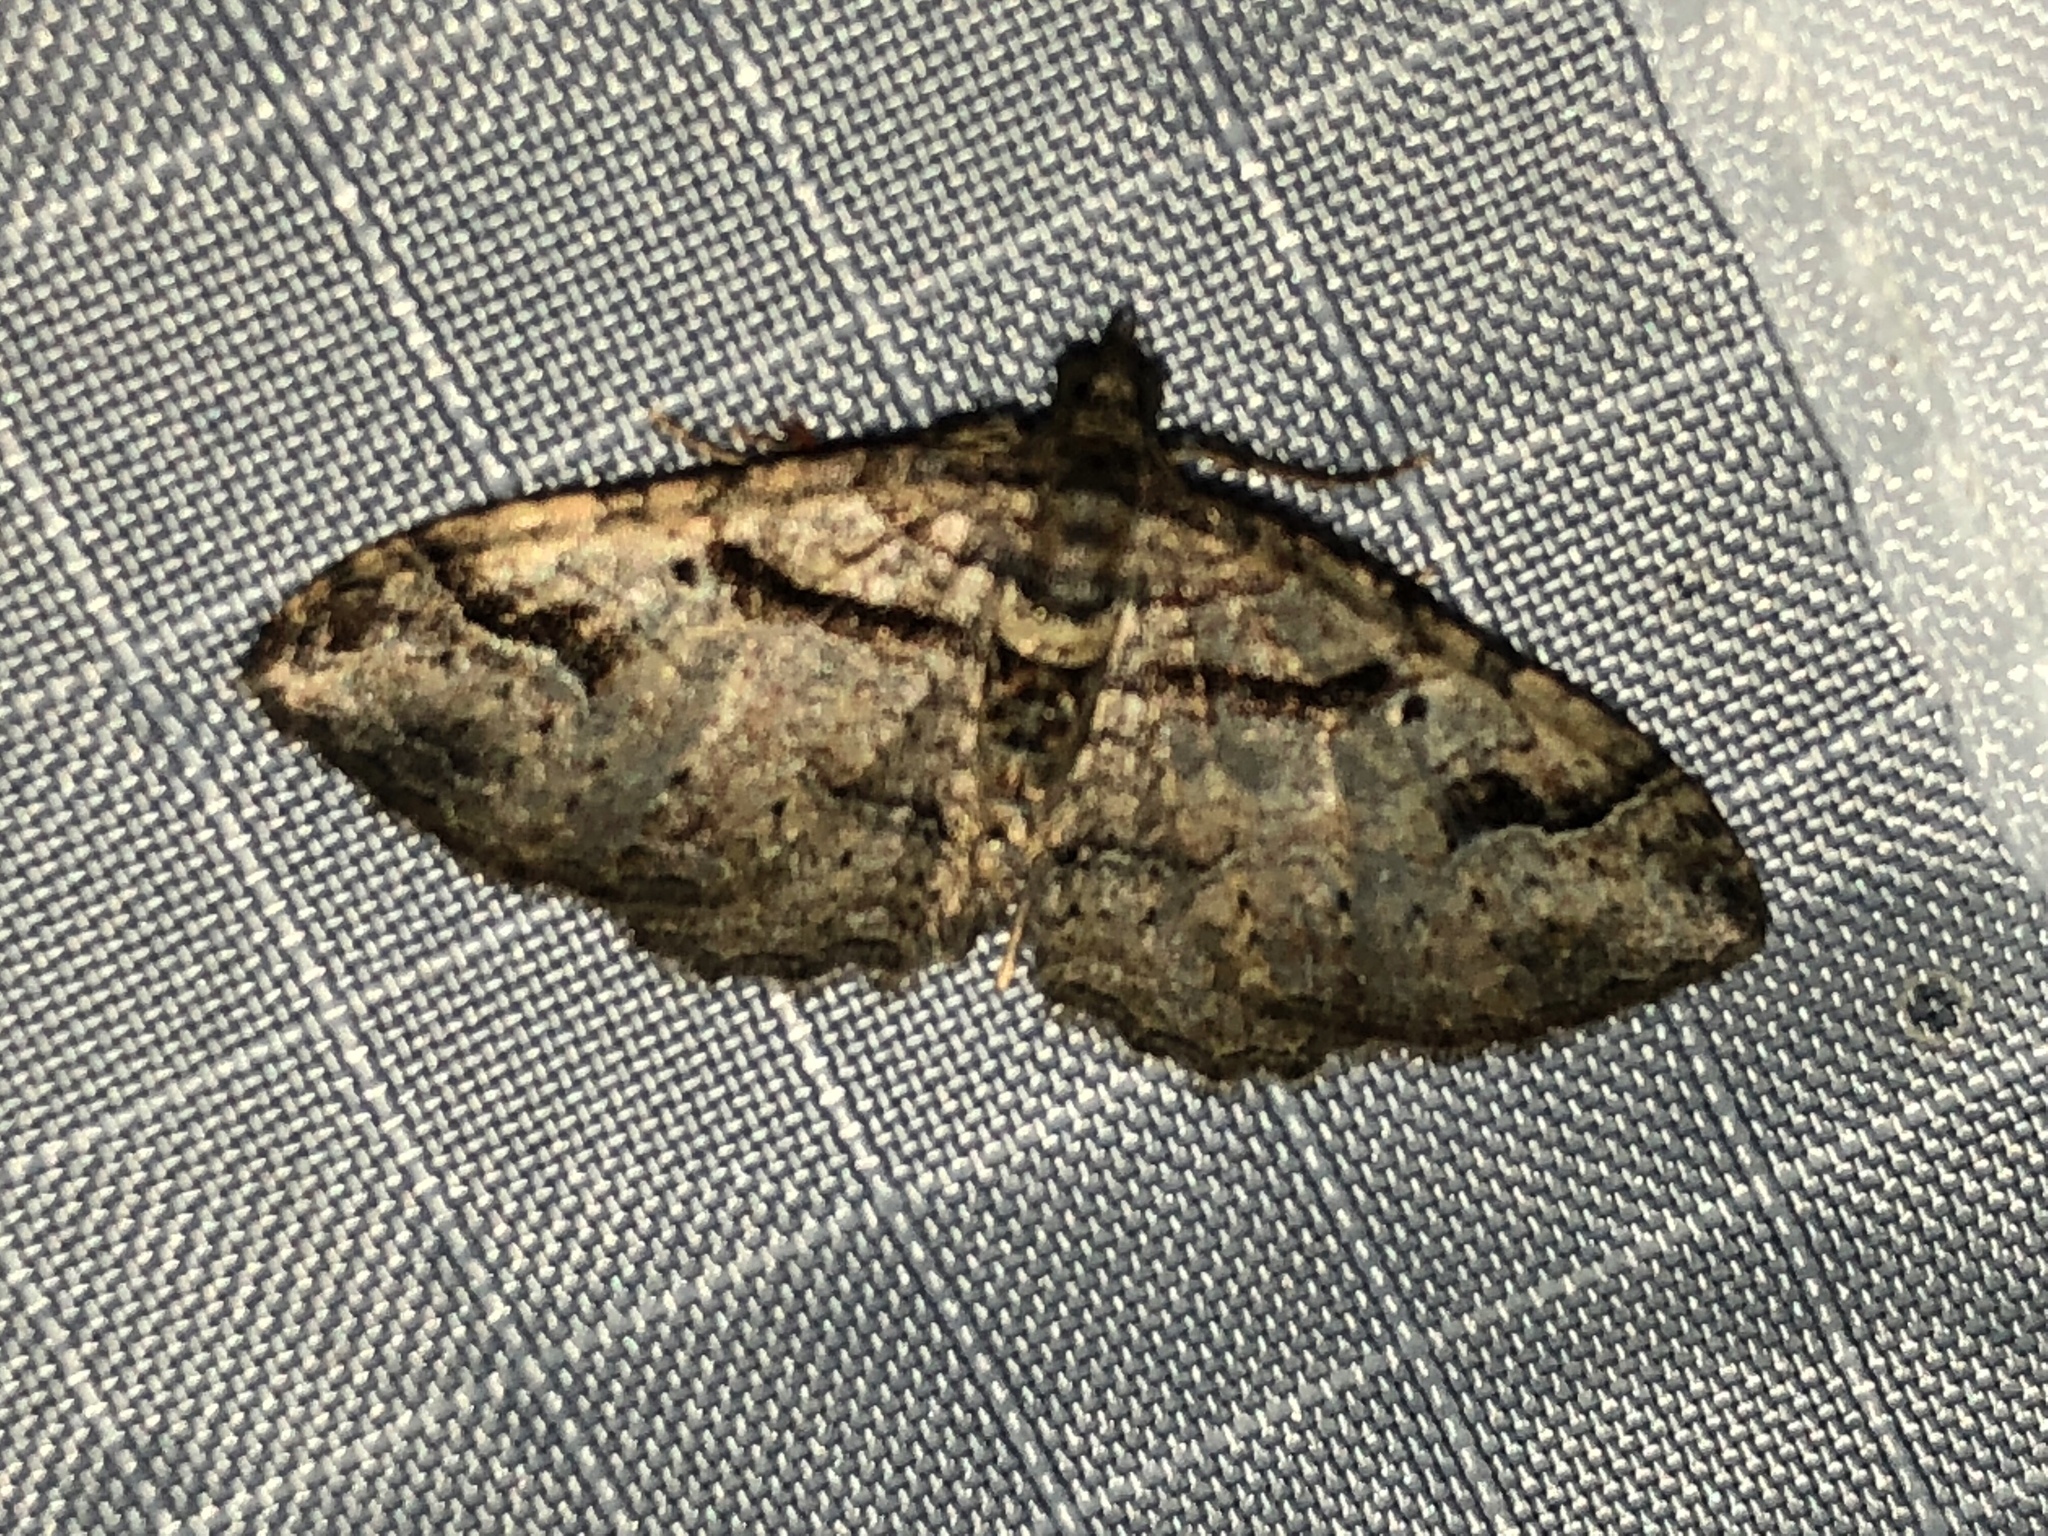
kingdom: Animalia
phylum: Arthropoda
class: Insecta
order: Lepidoptera
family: Geometridae
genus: Costaconvexa
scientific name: Costaconvexa centrostrigaria
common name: Bent-line carpet
